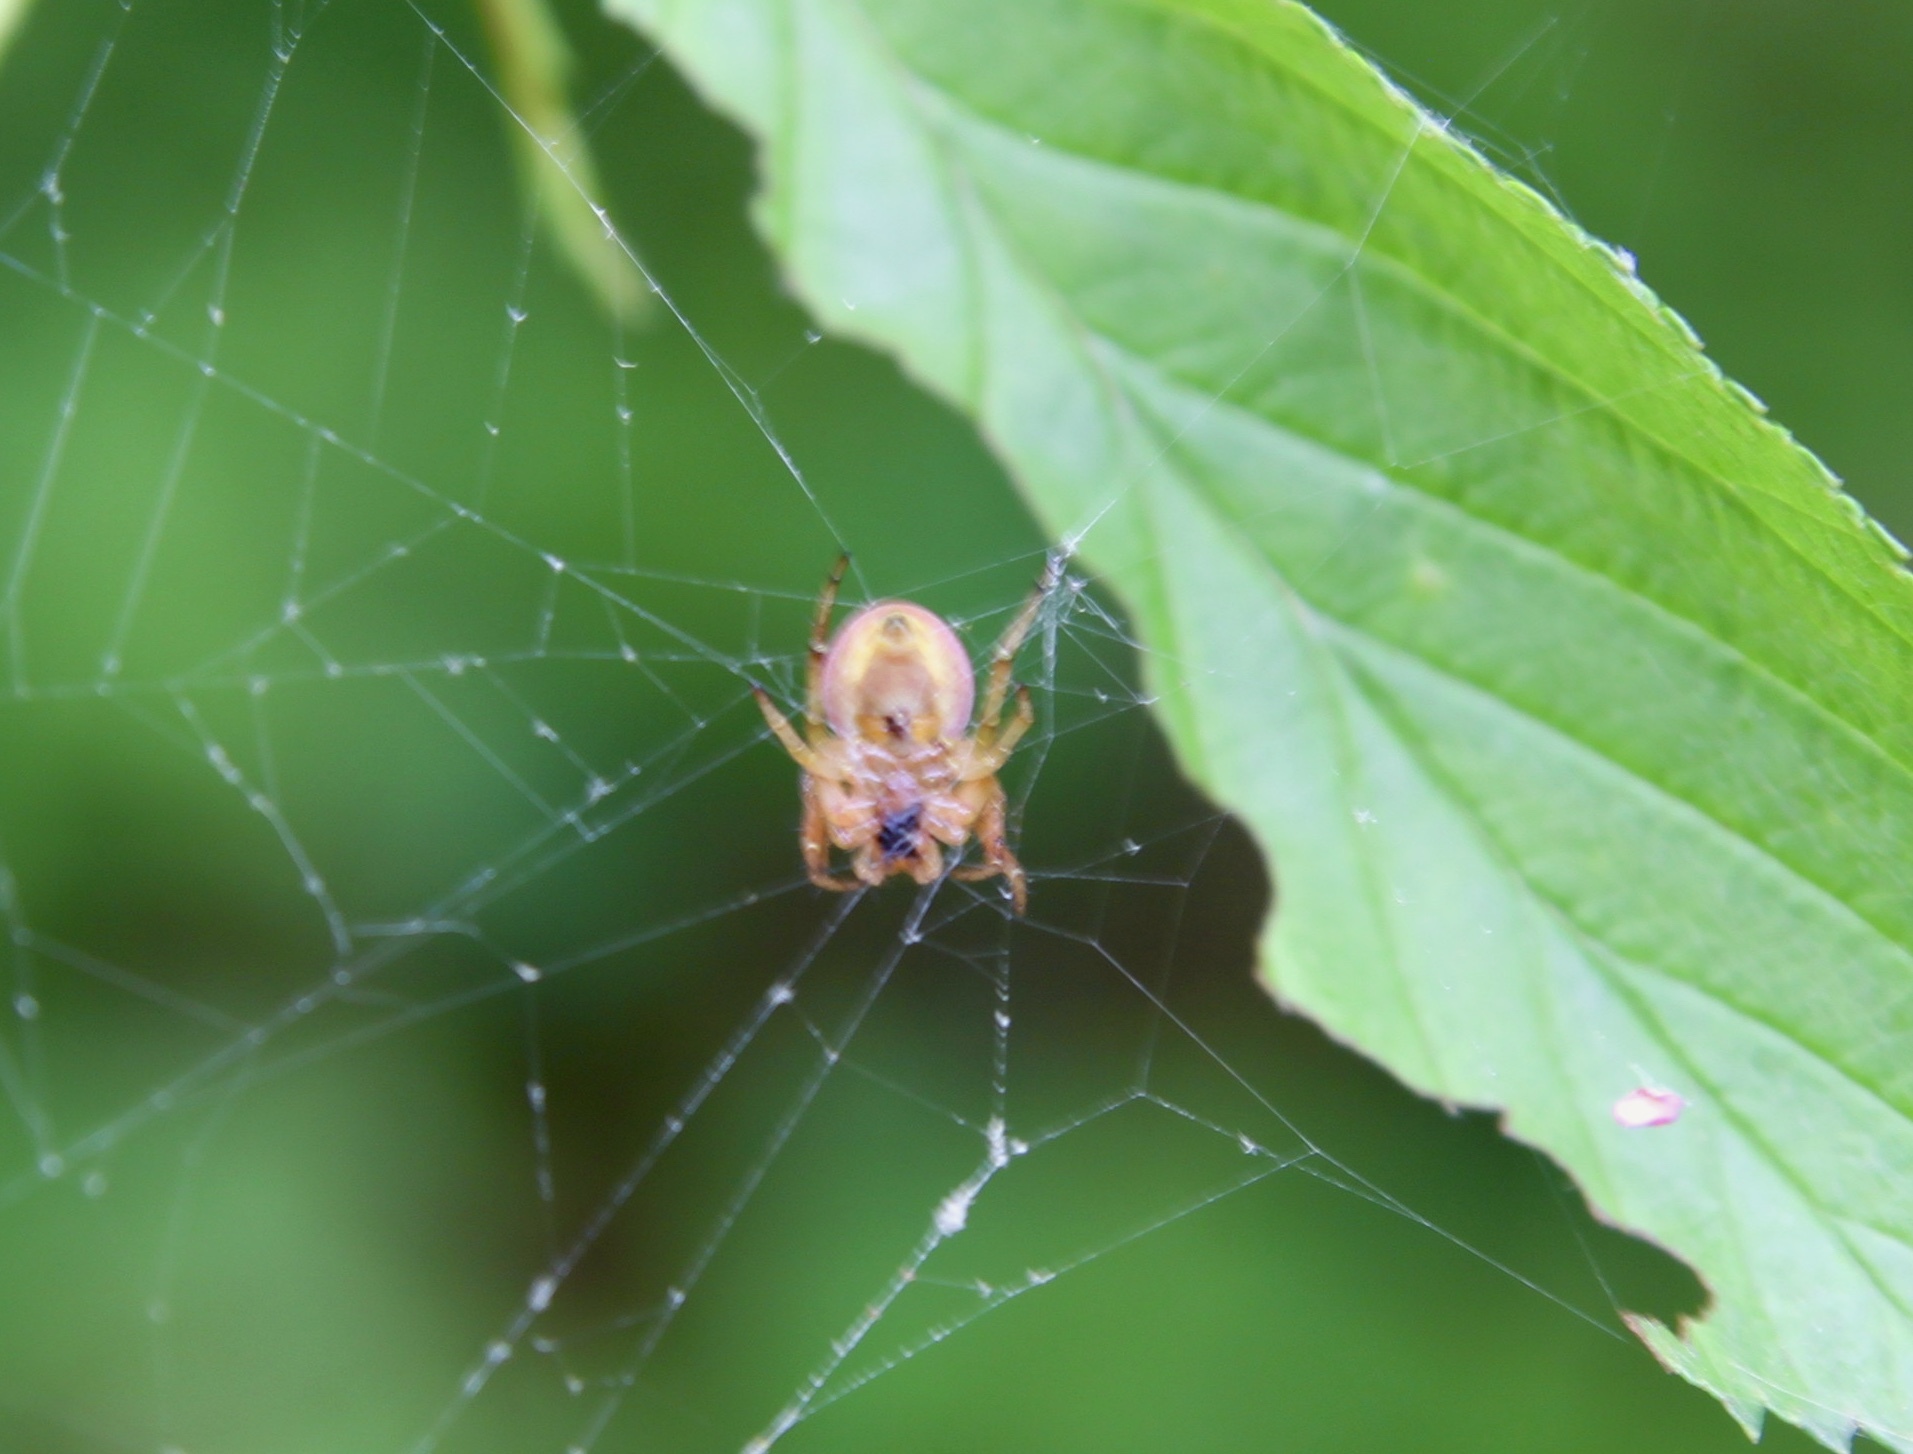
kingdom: Animalia
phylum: Arthropoda
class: Arachnida
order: Araneae
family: Araneidae
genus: Araniella
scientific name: Araniella displicata
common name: Sixspotted orb weaver
